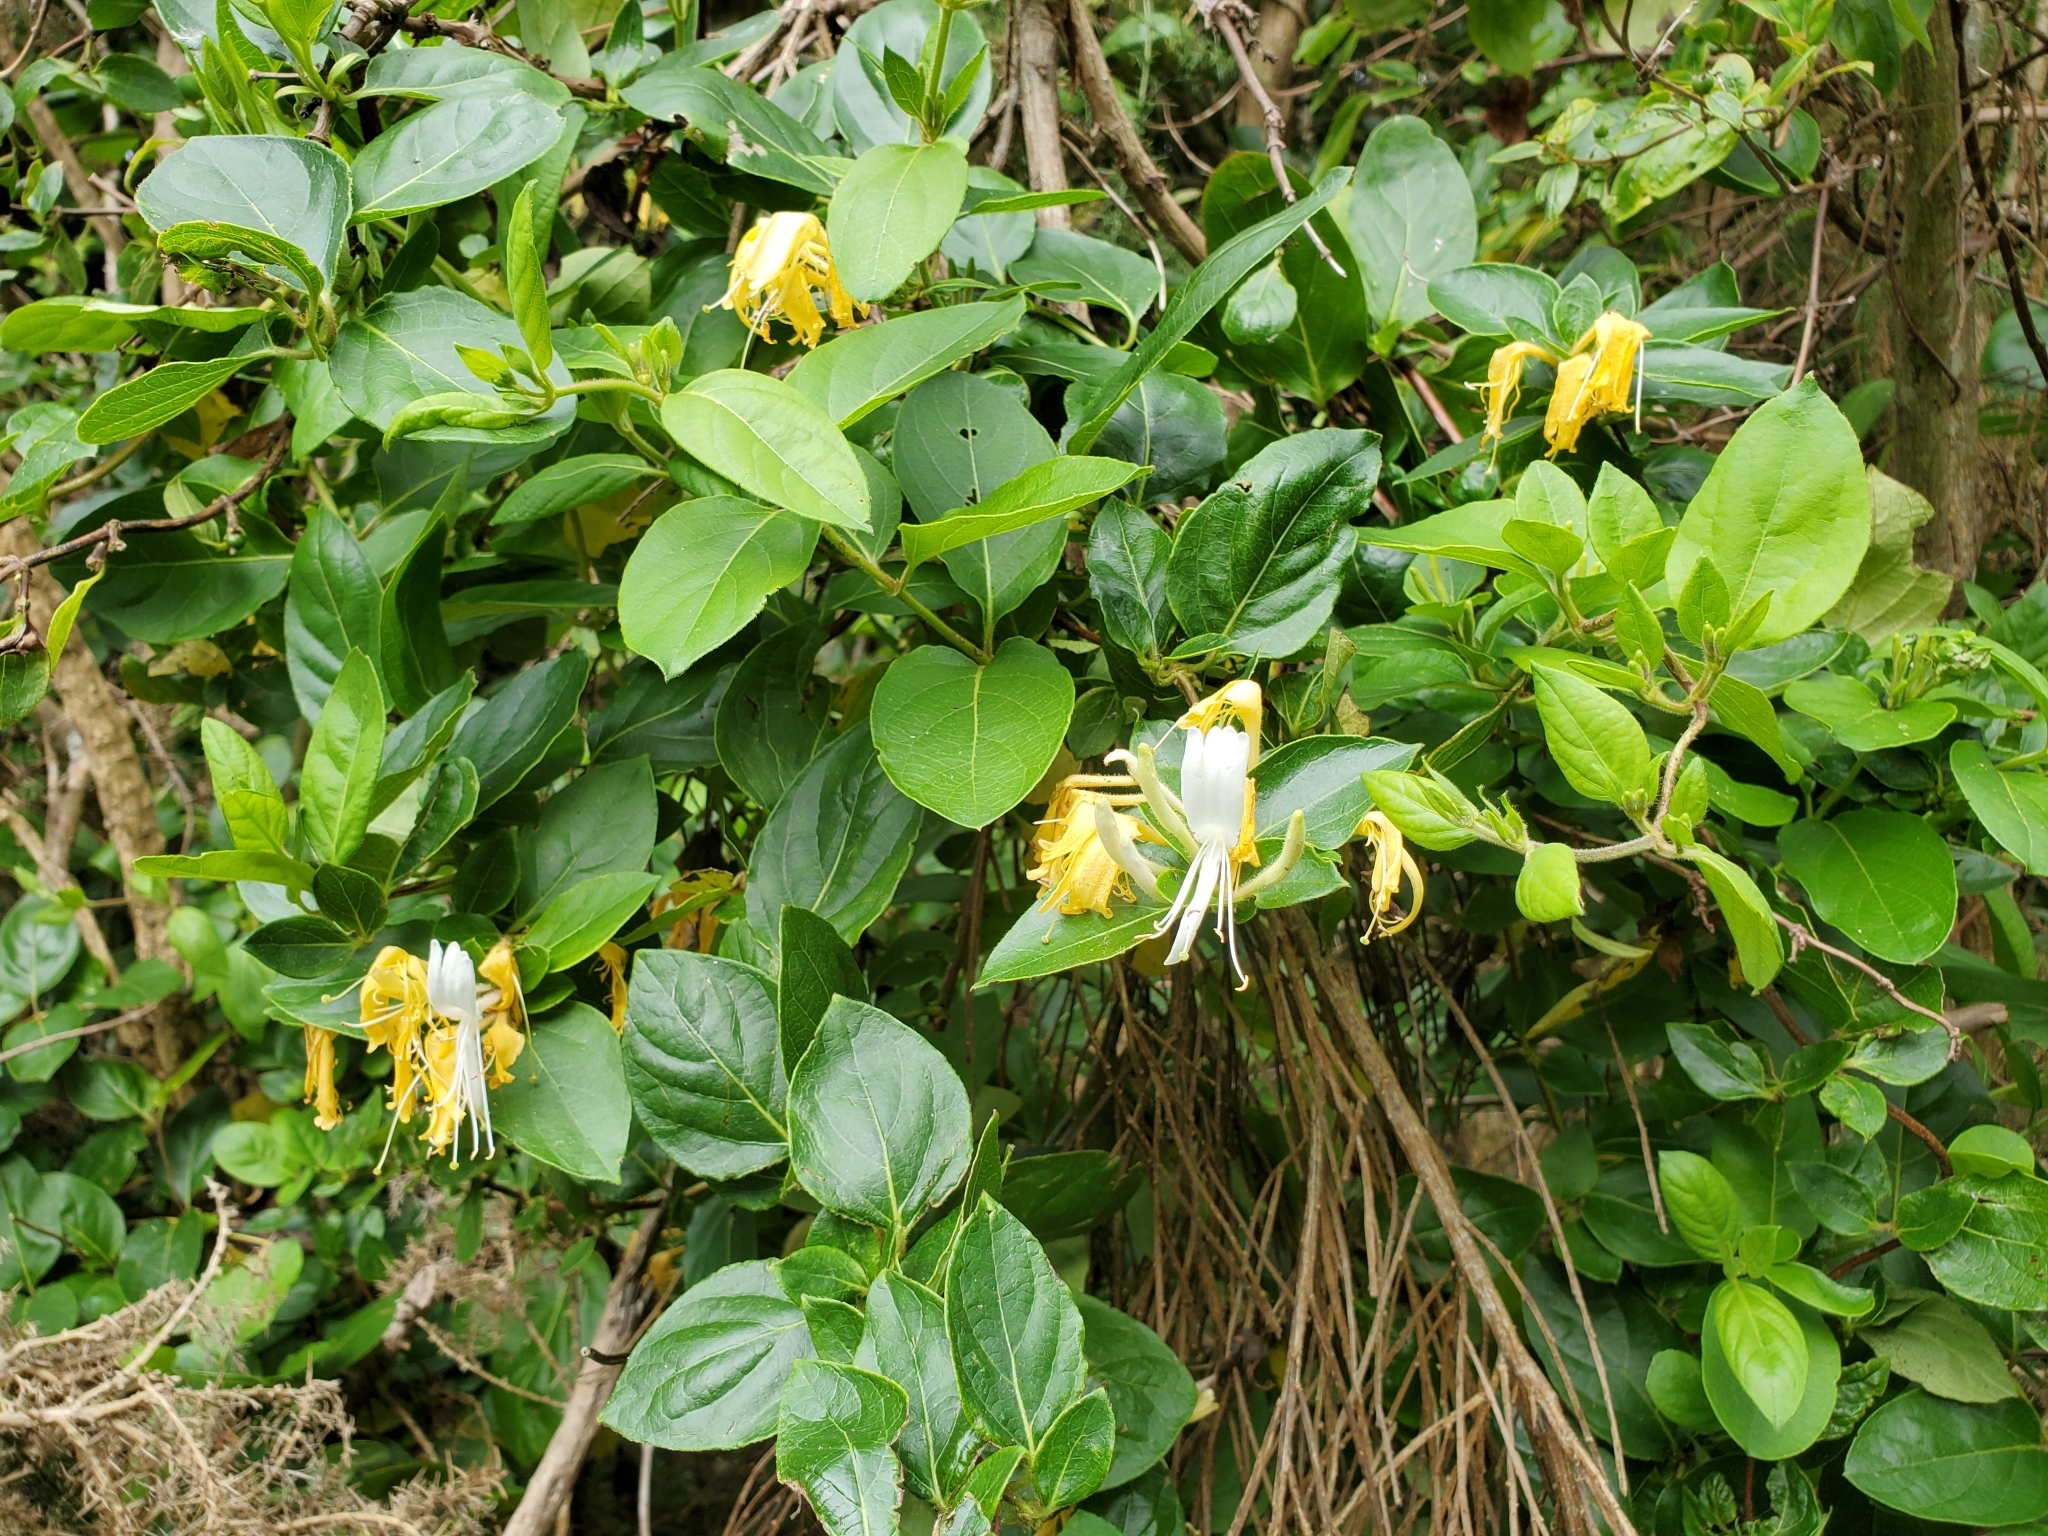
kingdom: Plantae
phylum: Tracheophyta
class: Magnoliopsida
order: Dipsacales
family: Caprifoliaceae
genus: Lonicera
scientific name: Lonicera japonica
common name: Japanese honeysuckle
